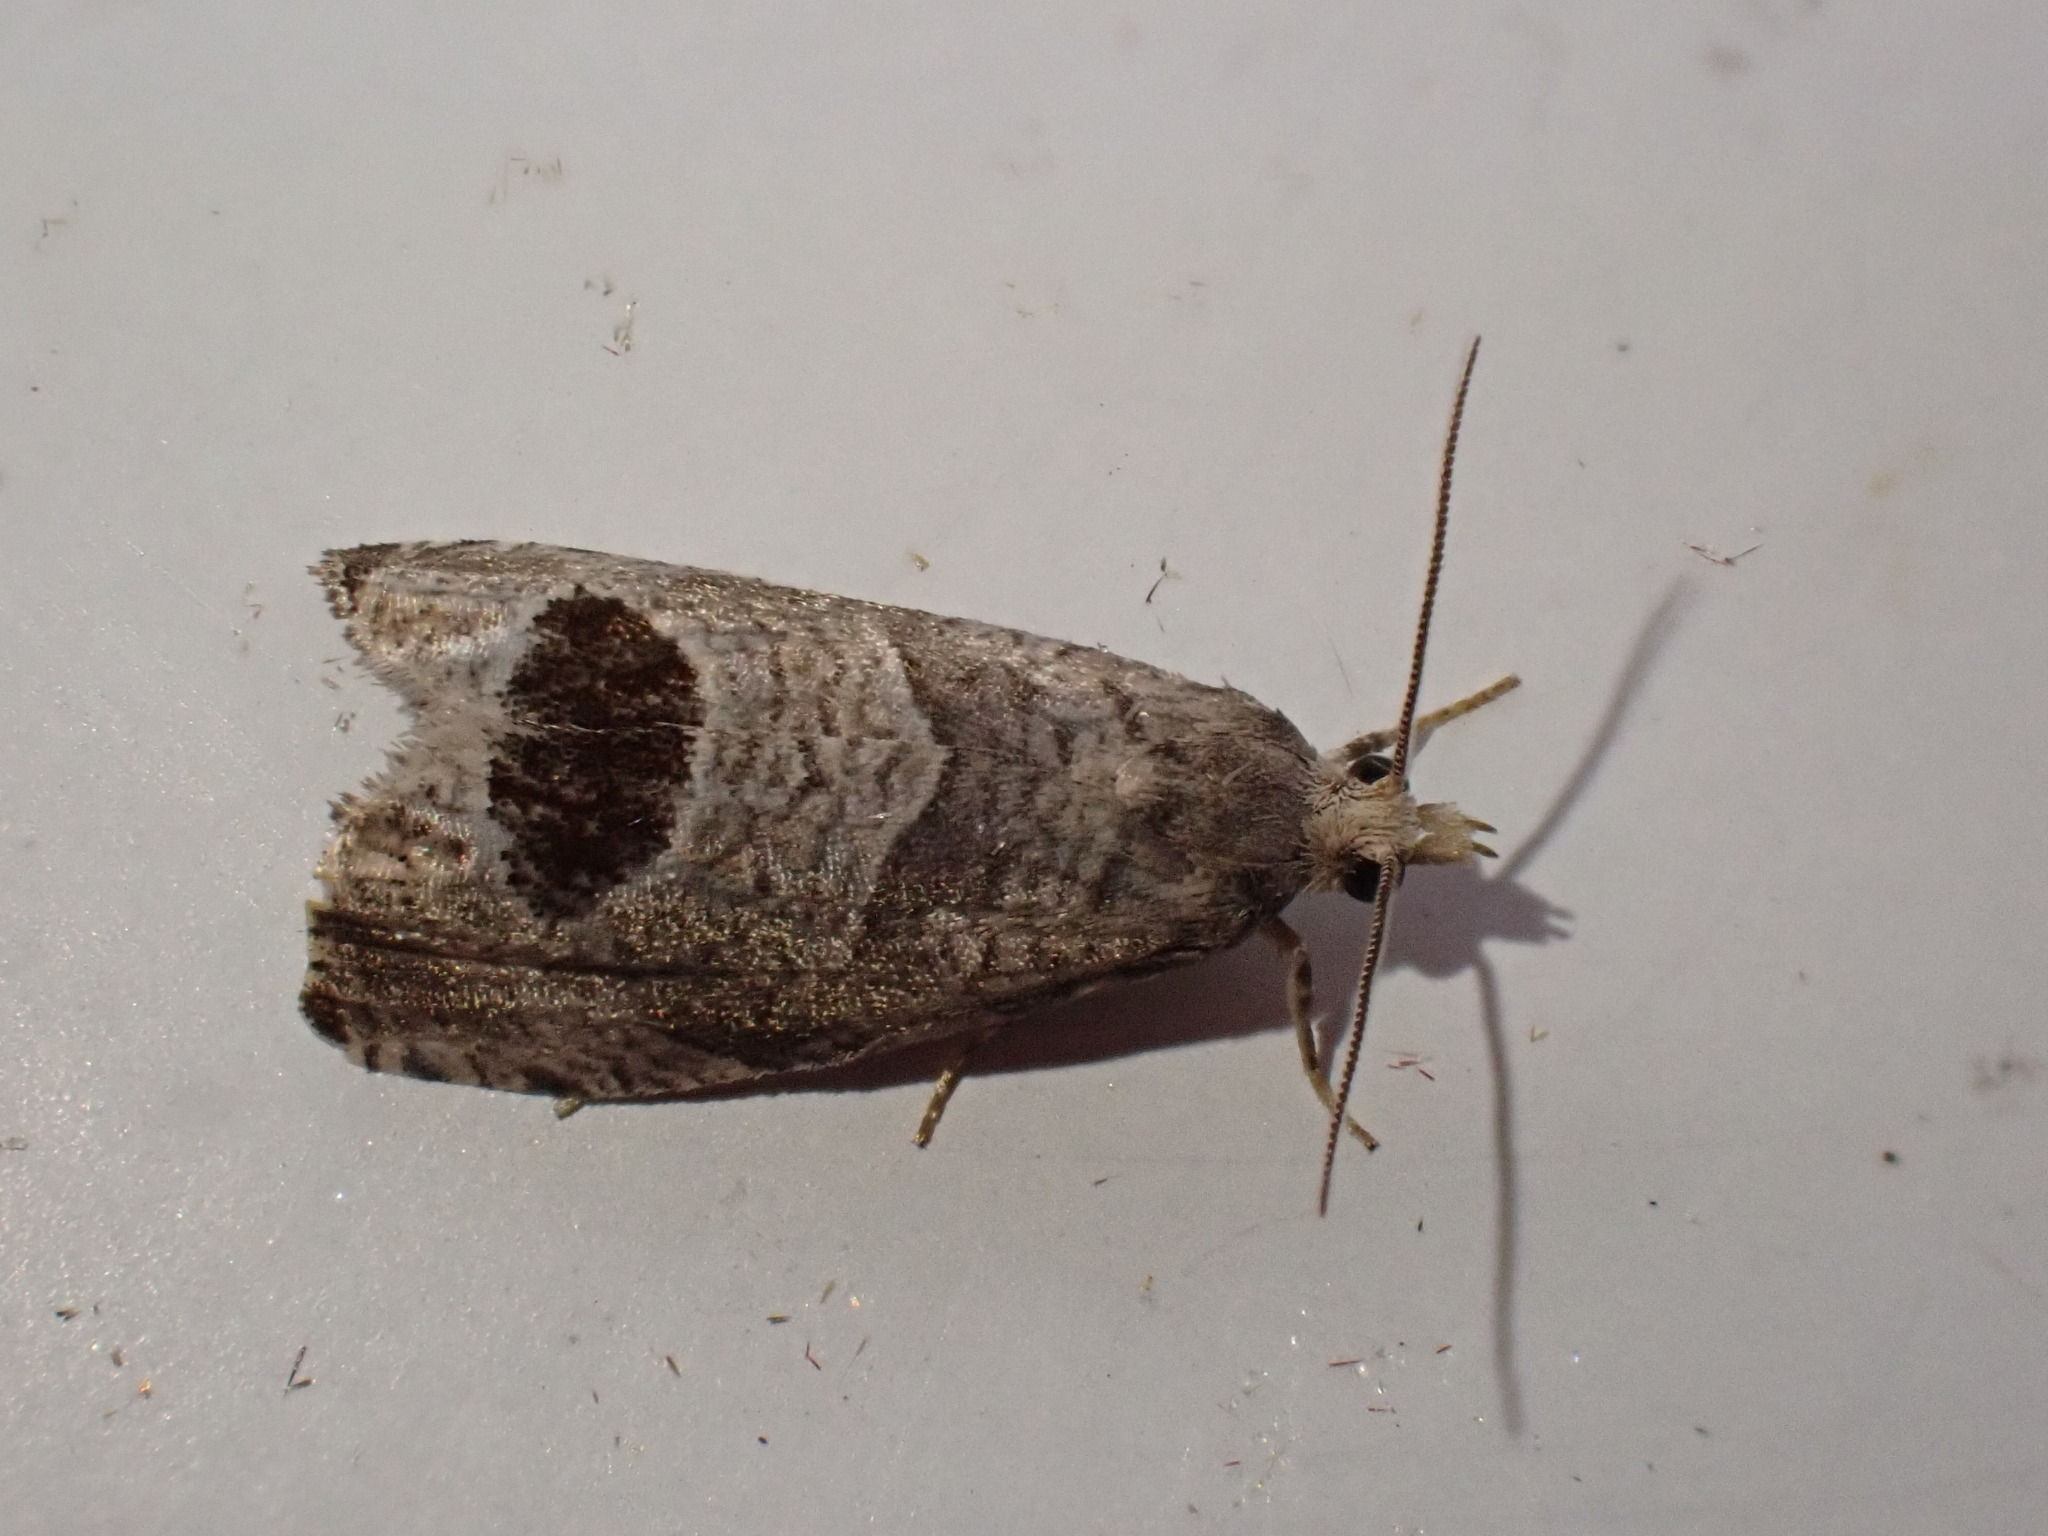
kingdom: Animalia
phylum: Arthropoda
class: Insecta
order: Lepidoptera
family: Tortricidae
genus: Notocelia
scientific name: Notocelia uddmanniana
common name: Bramble shoot moth
